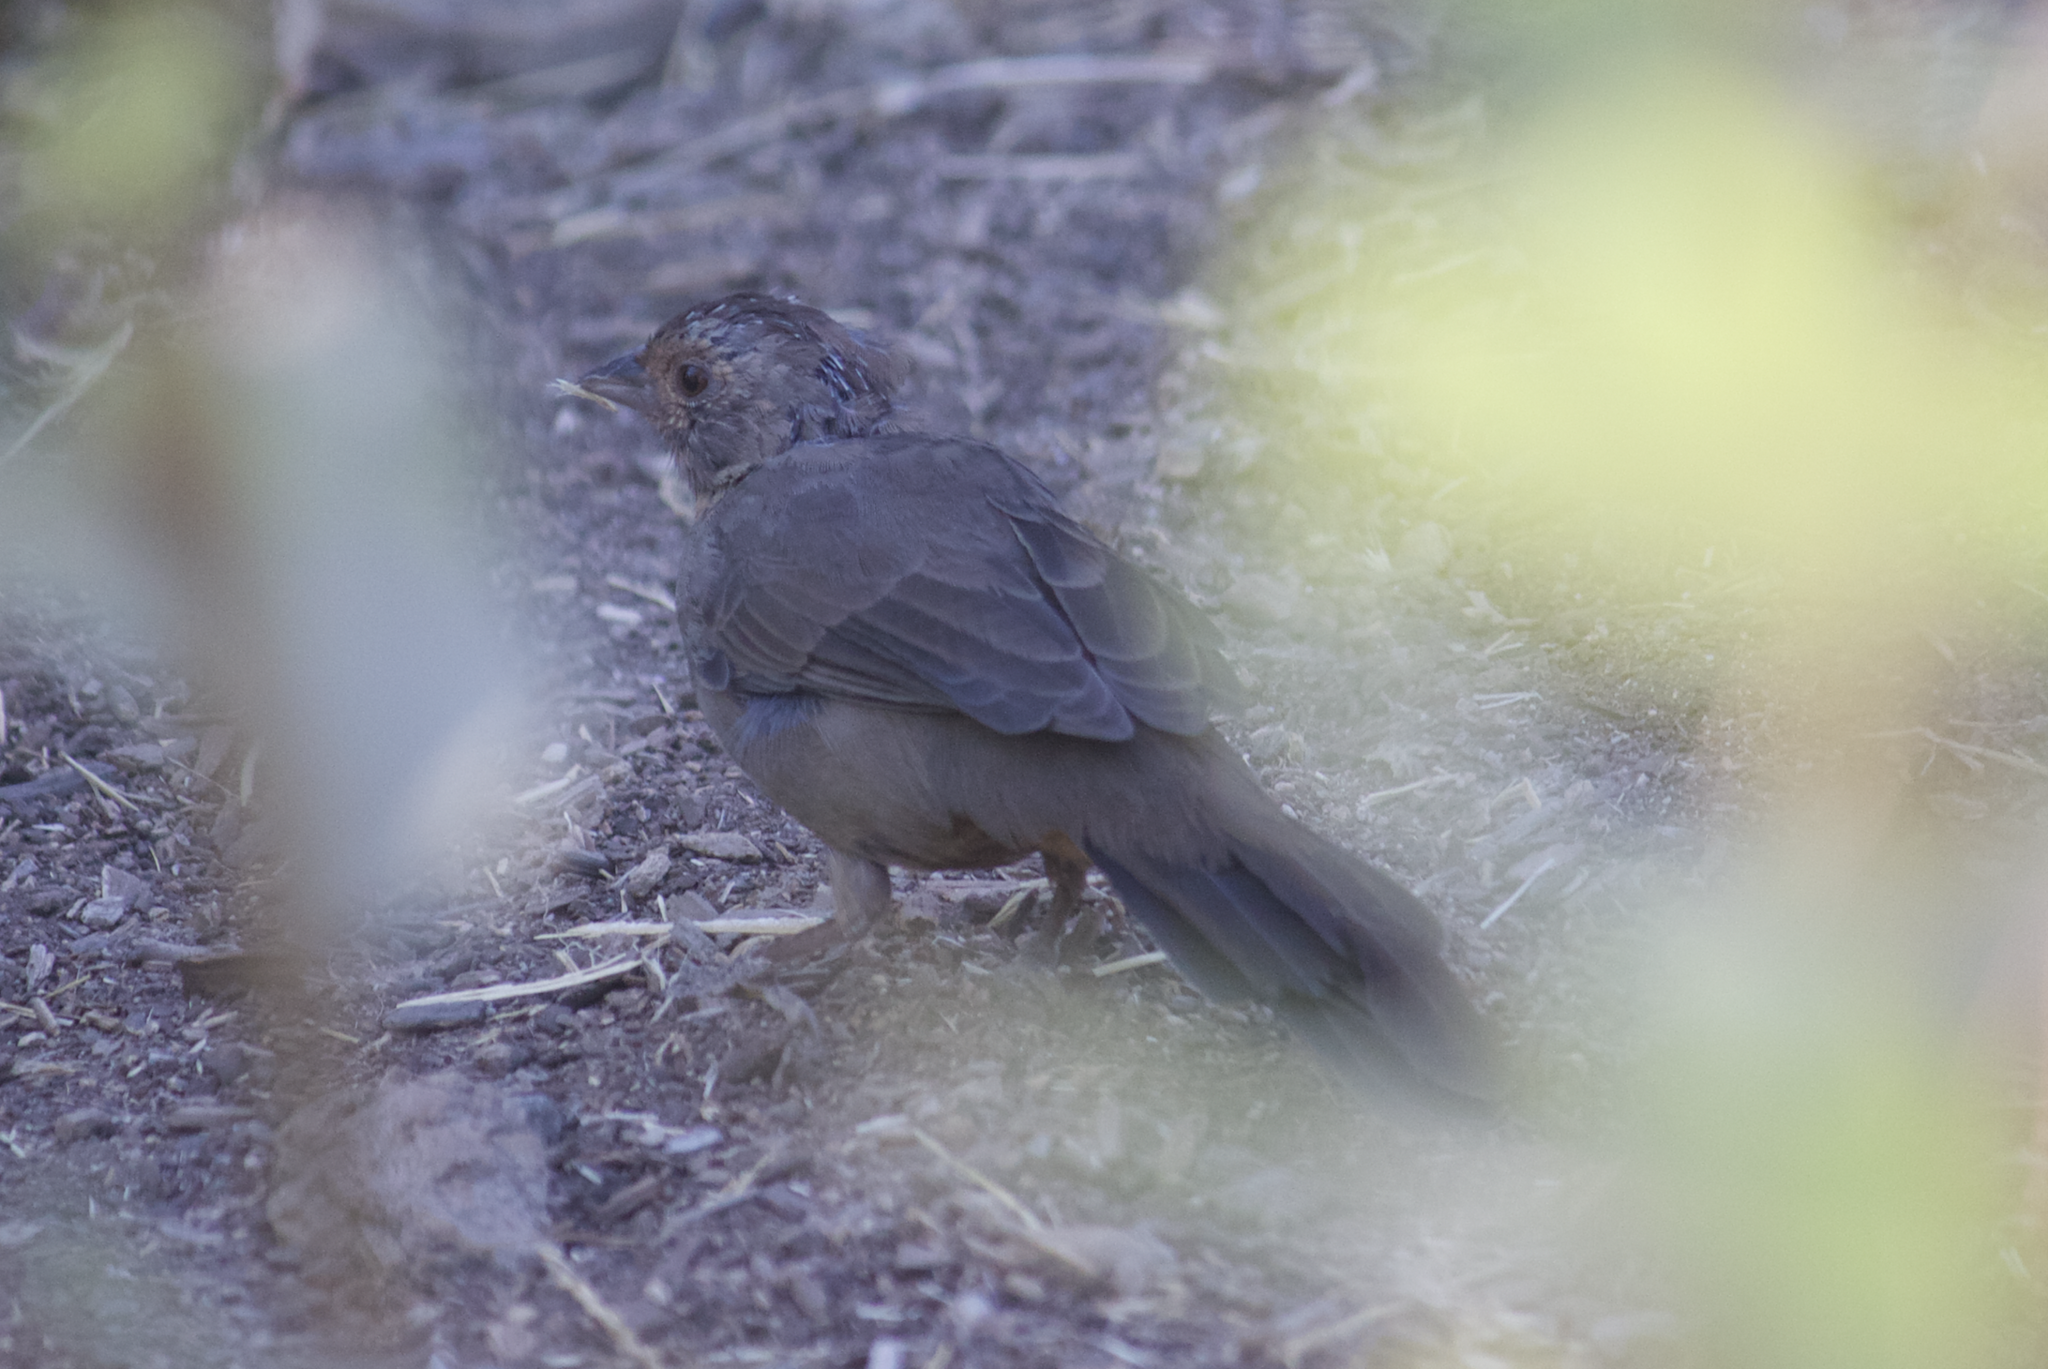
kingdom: Animalia
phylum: Chordata
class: Aves
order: Passeriformes
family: Passerellidae
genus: Melozone
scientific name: Melozone crissalis
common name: California towhee
